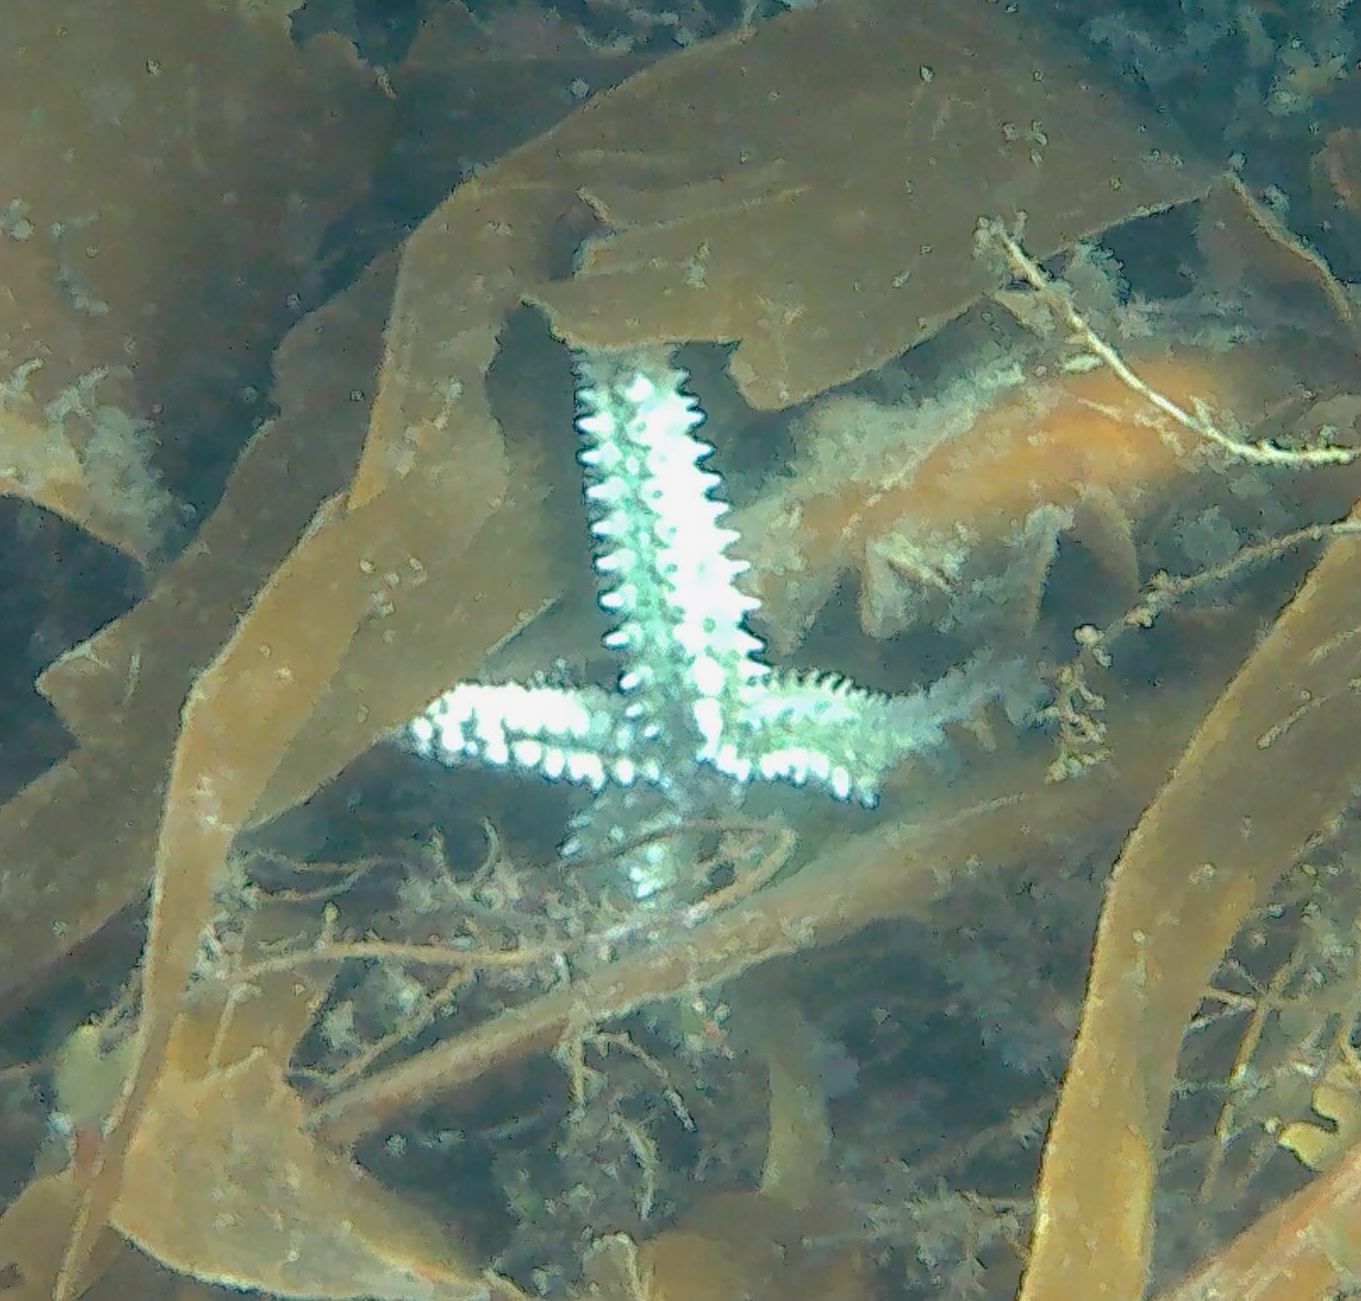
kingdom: Animalia
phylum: Echinodermata
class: Asteroidea
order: Forcipulatida
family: Asteriidae
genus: Marthasterias
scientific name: Marthasterias glacialis
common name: Spiny starfish
